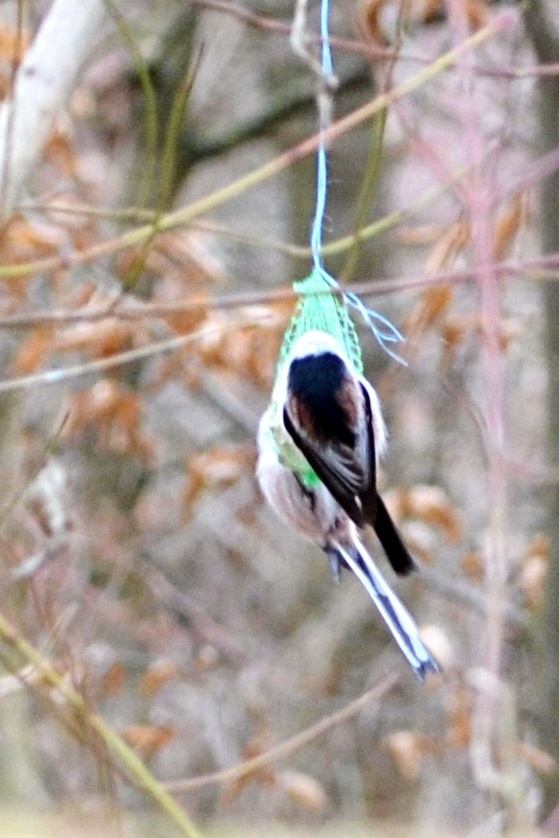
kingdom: Animalia
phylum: Chordata
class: Aves
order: Passeriformes
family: Aegithalidae
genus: Aegithalos
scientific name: Aegithalos caudatus
